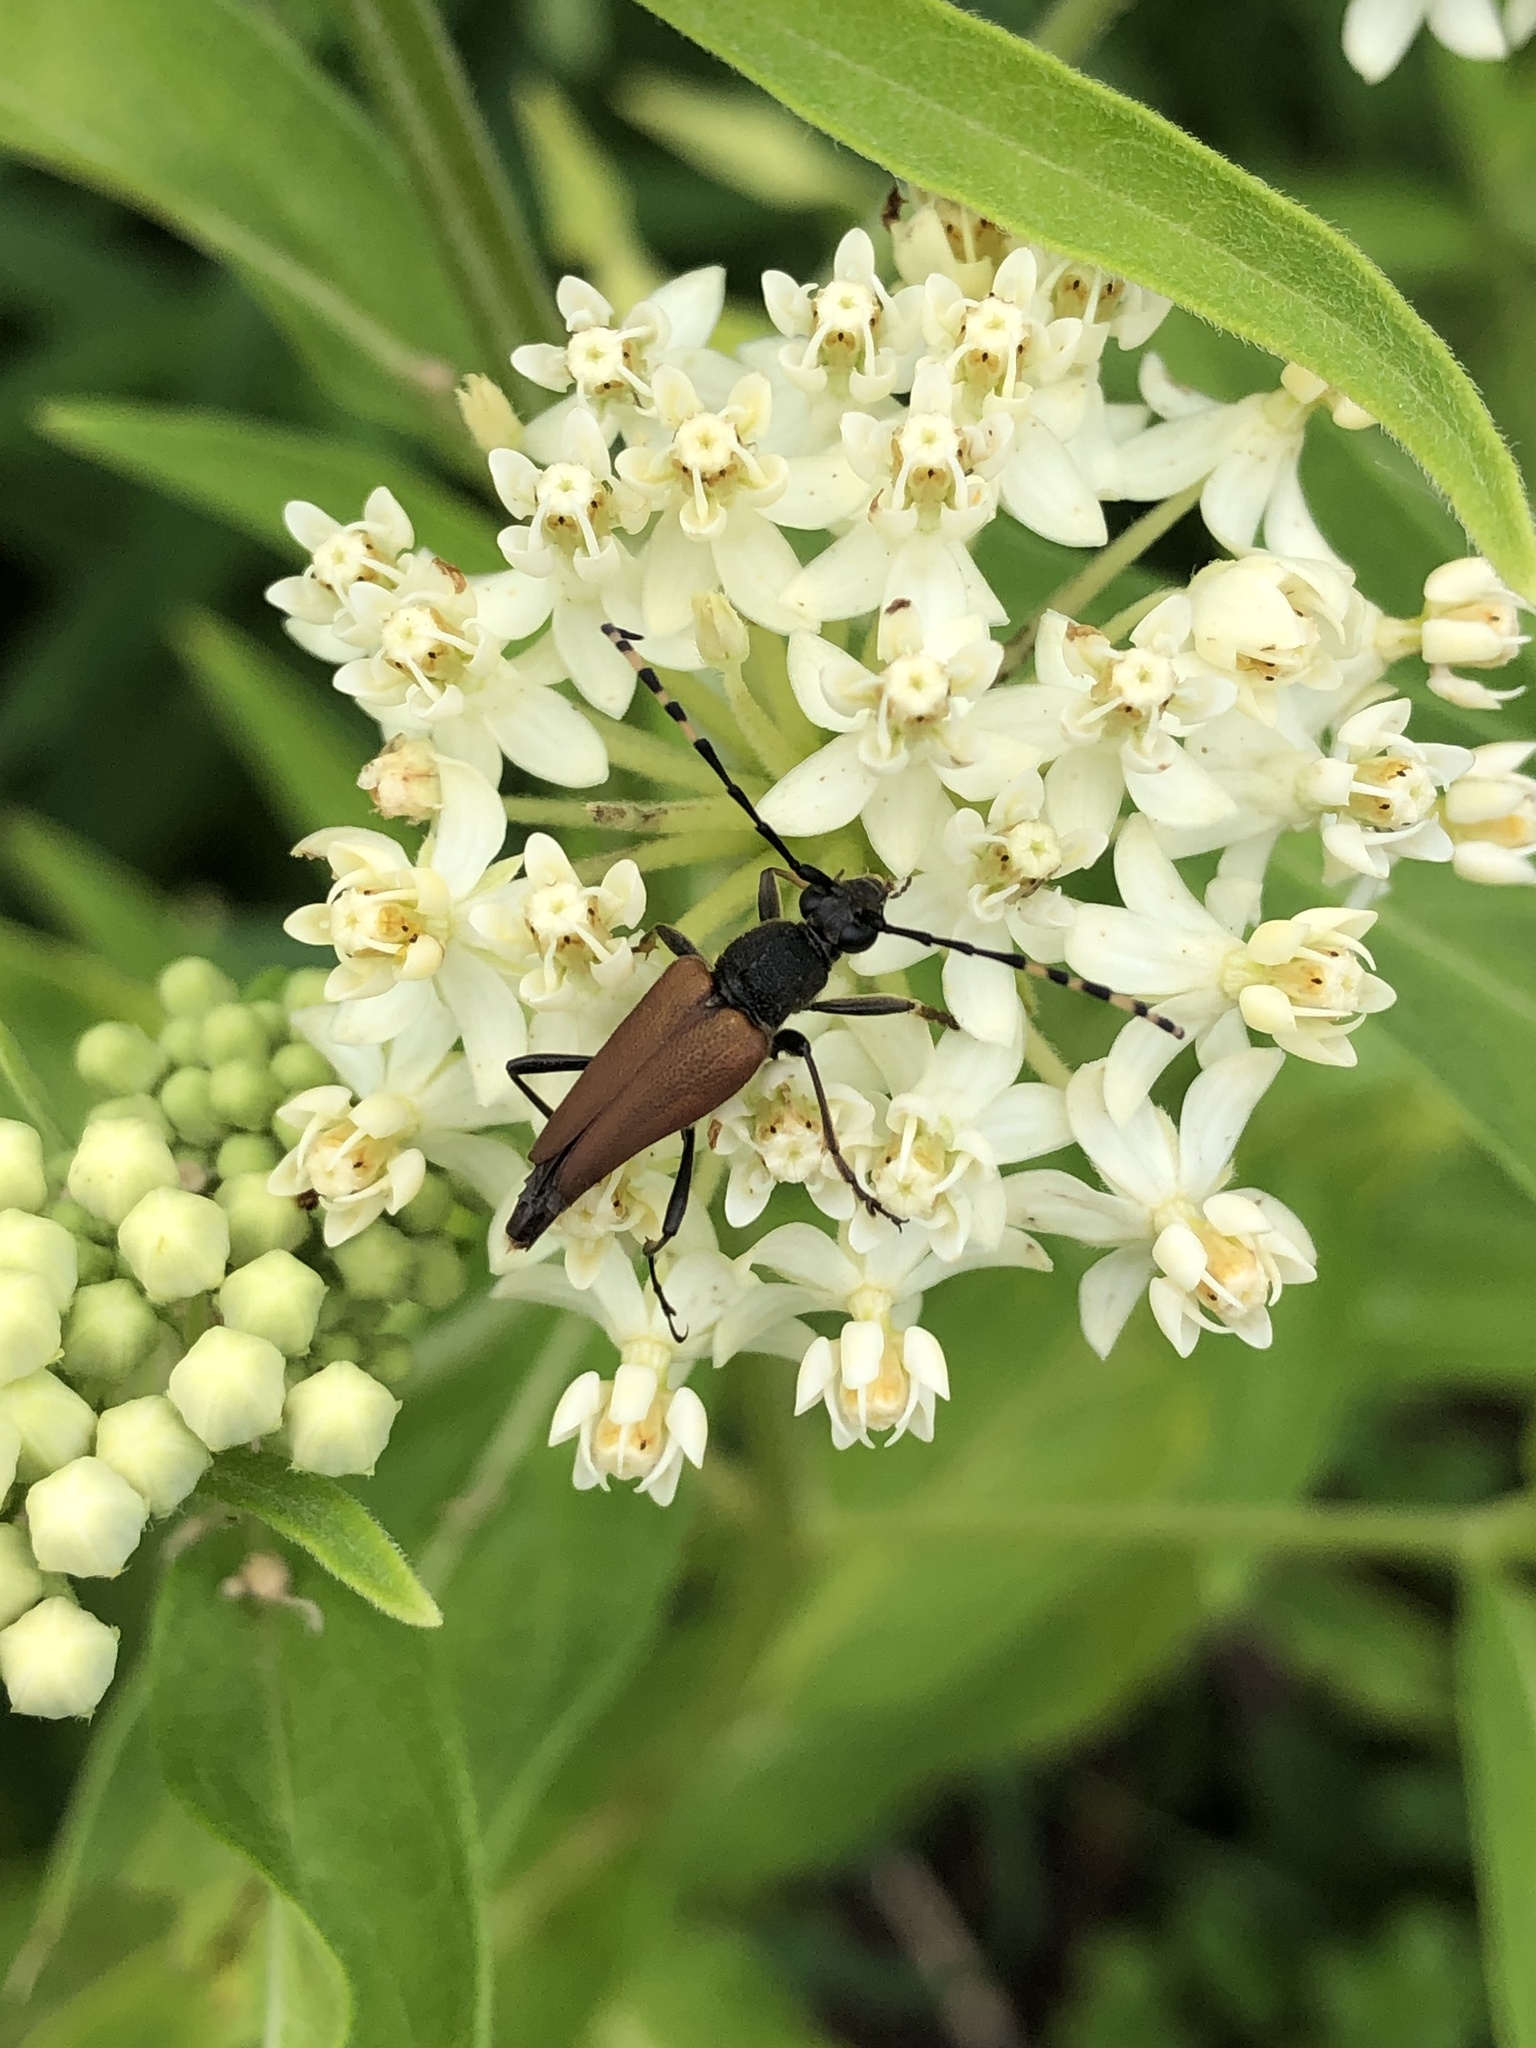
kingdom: Animalia
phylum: Arthropoda
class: Insecta
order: Coleoptera
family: Cerambycidae
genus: Brachyleptura
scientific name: Brachyleptura rubrica
